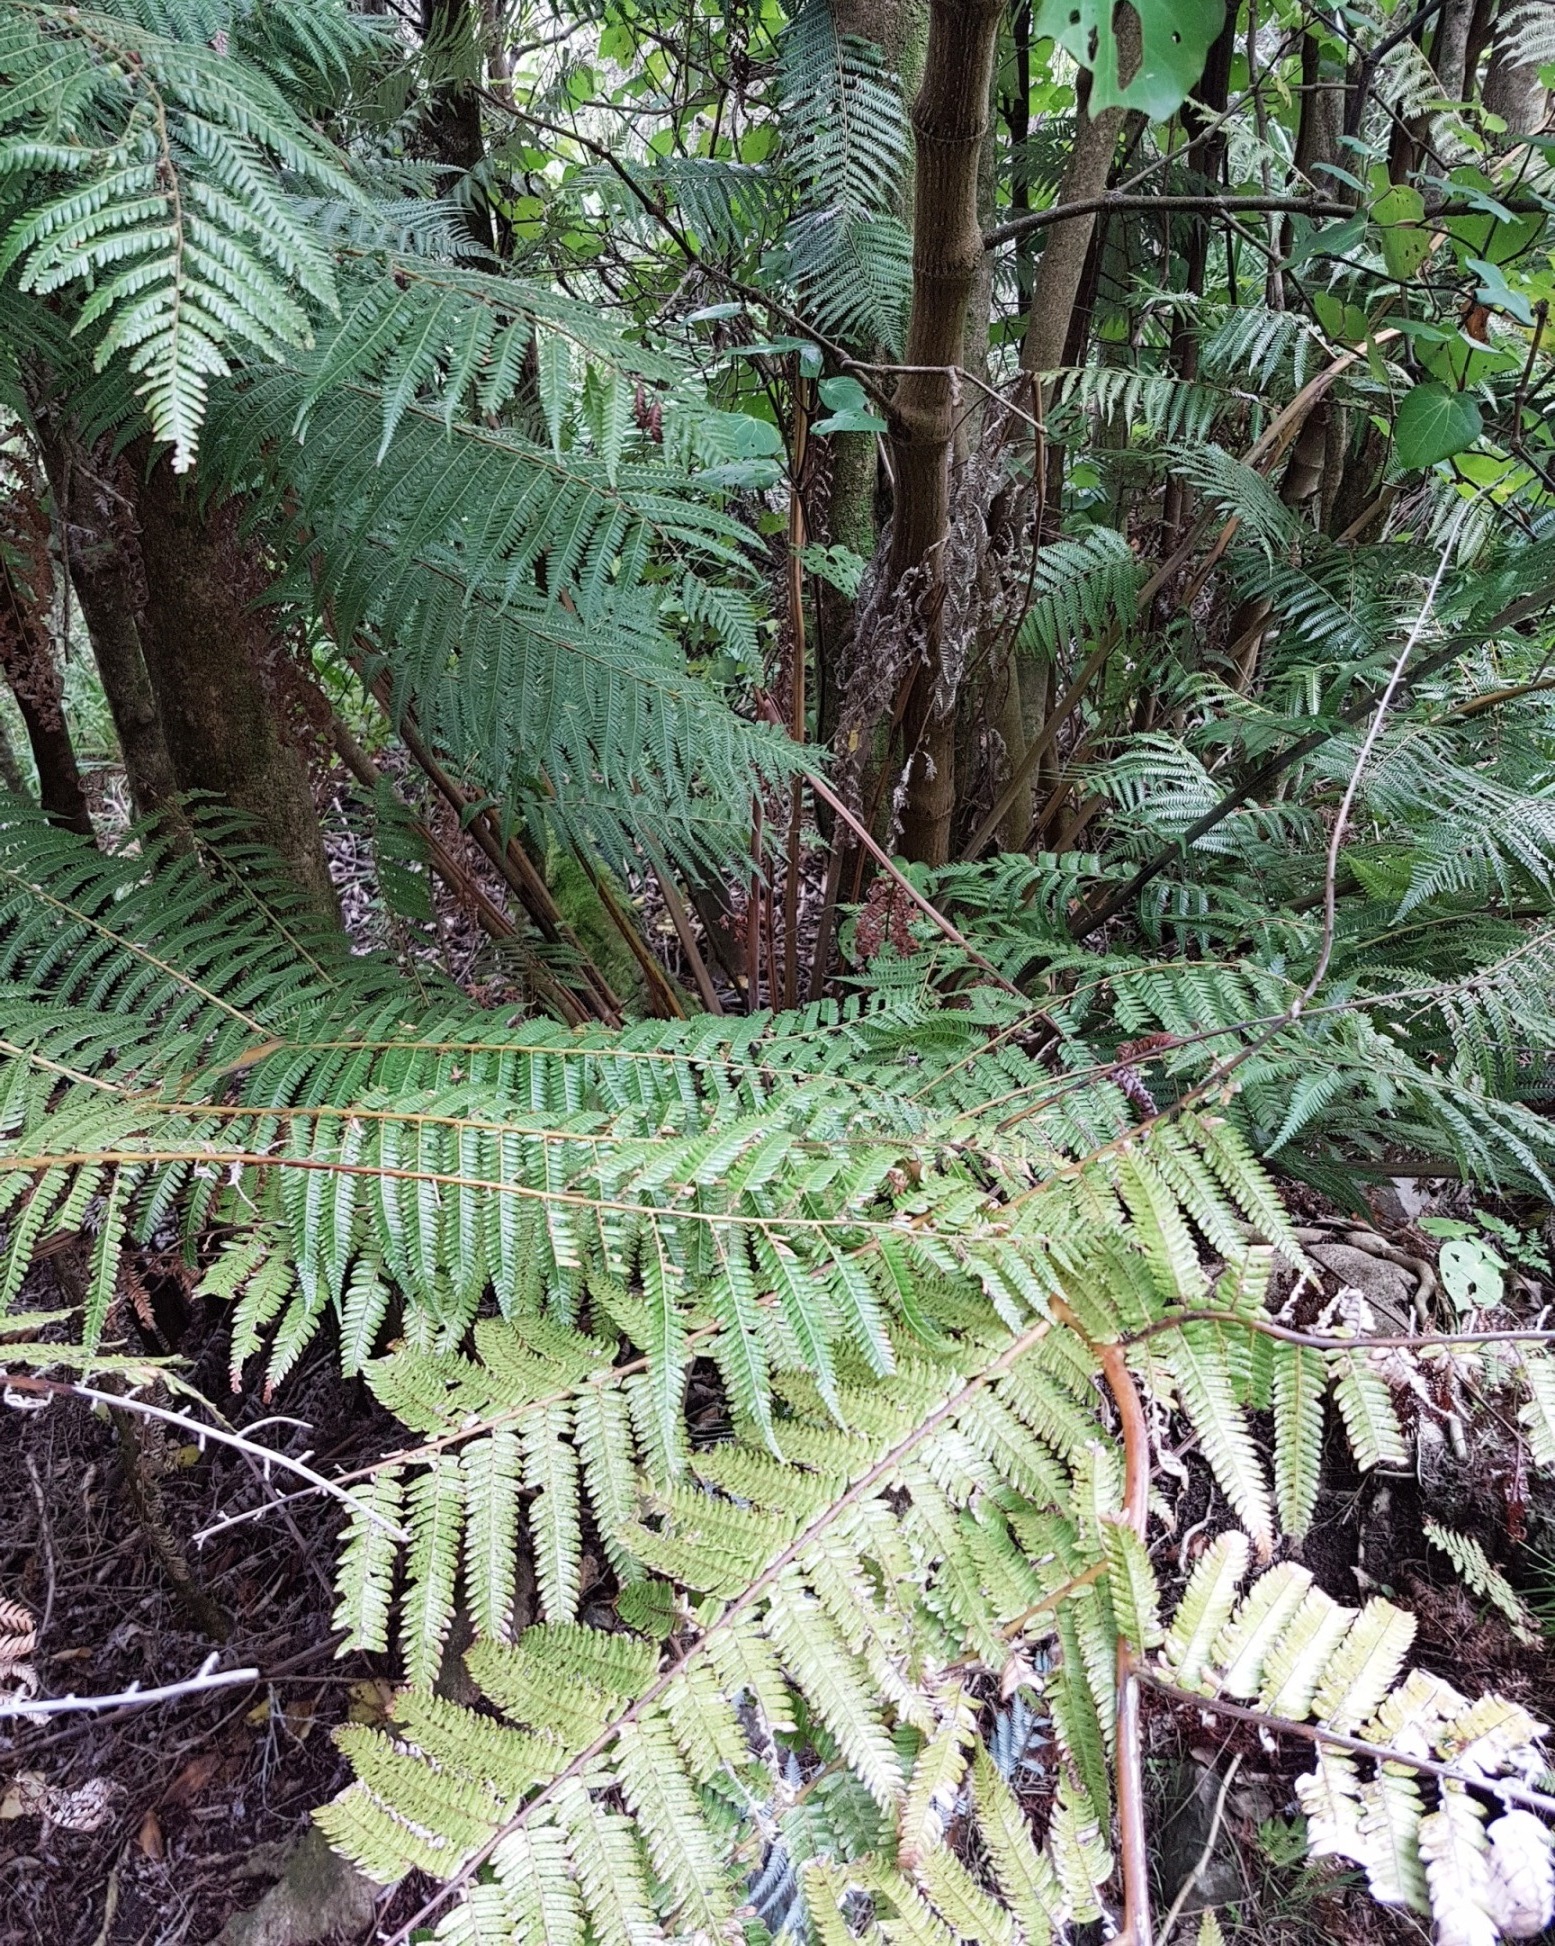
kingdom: Plantae
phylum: Tracheophyta
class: Polypodiopsida
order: Cyatheales
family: Cyatheaceae
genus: Alsophila
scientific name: Alsophila dealbata
